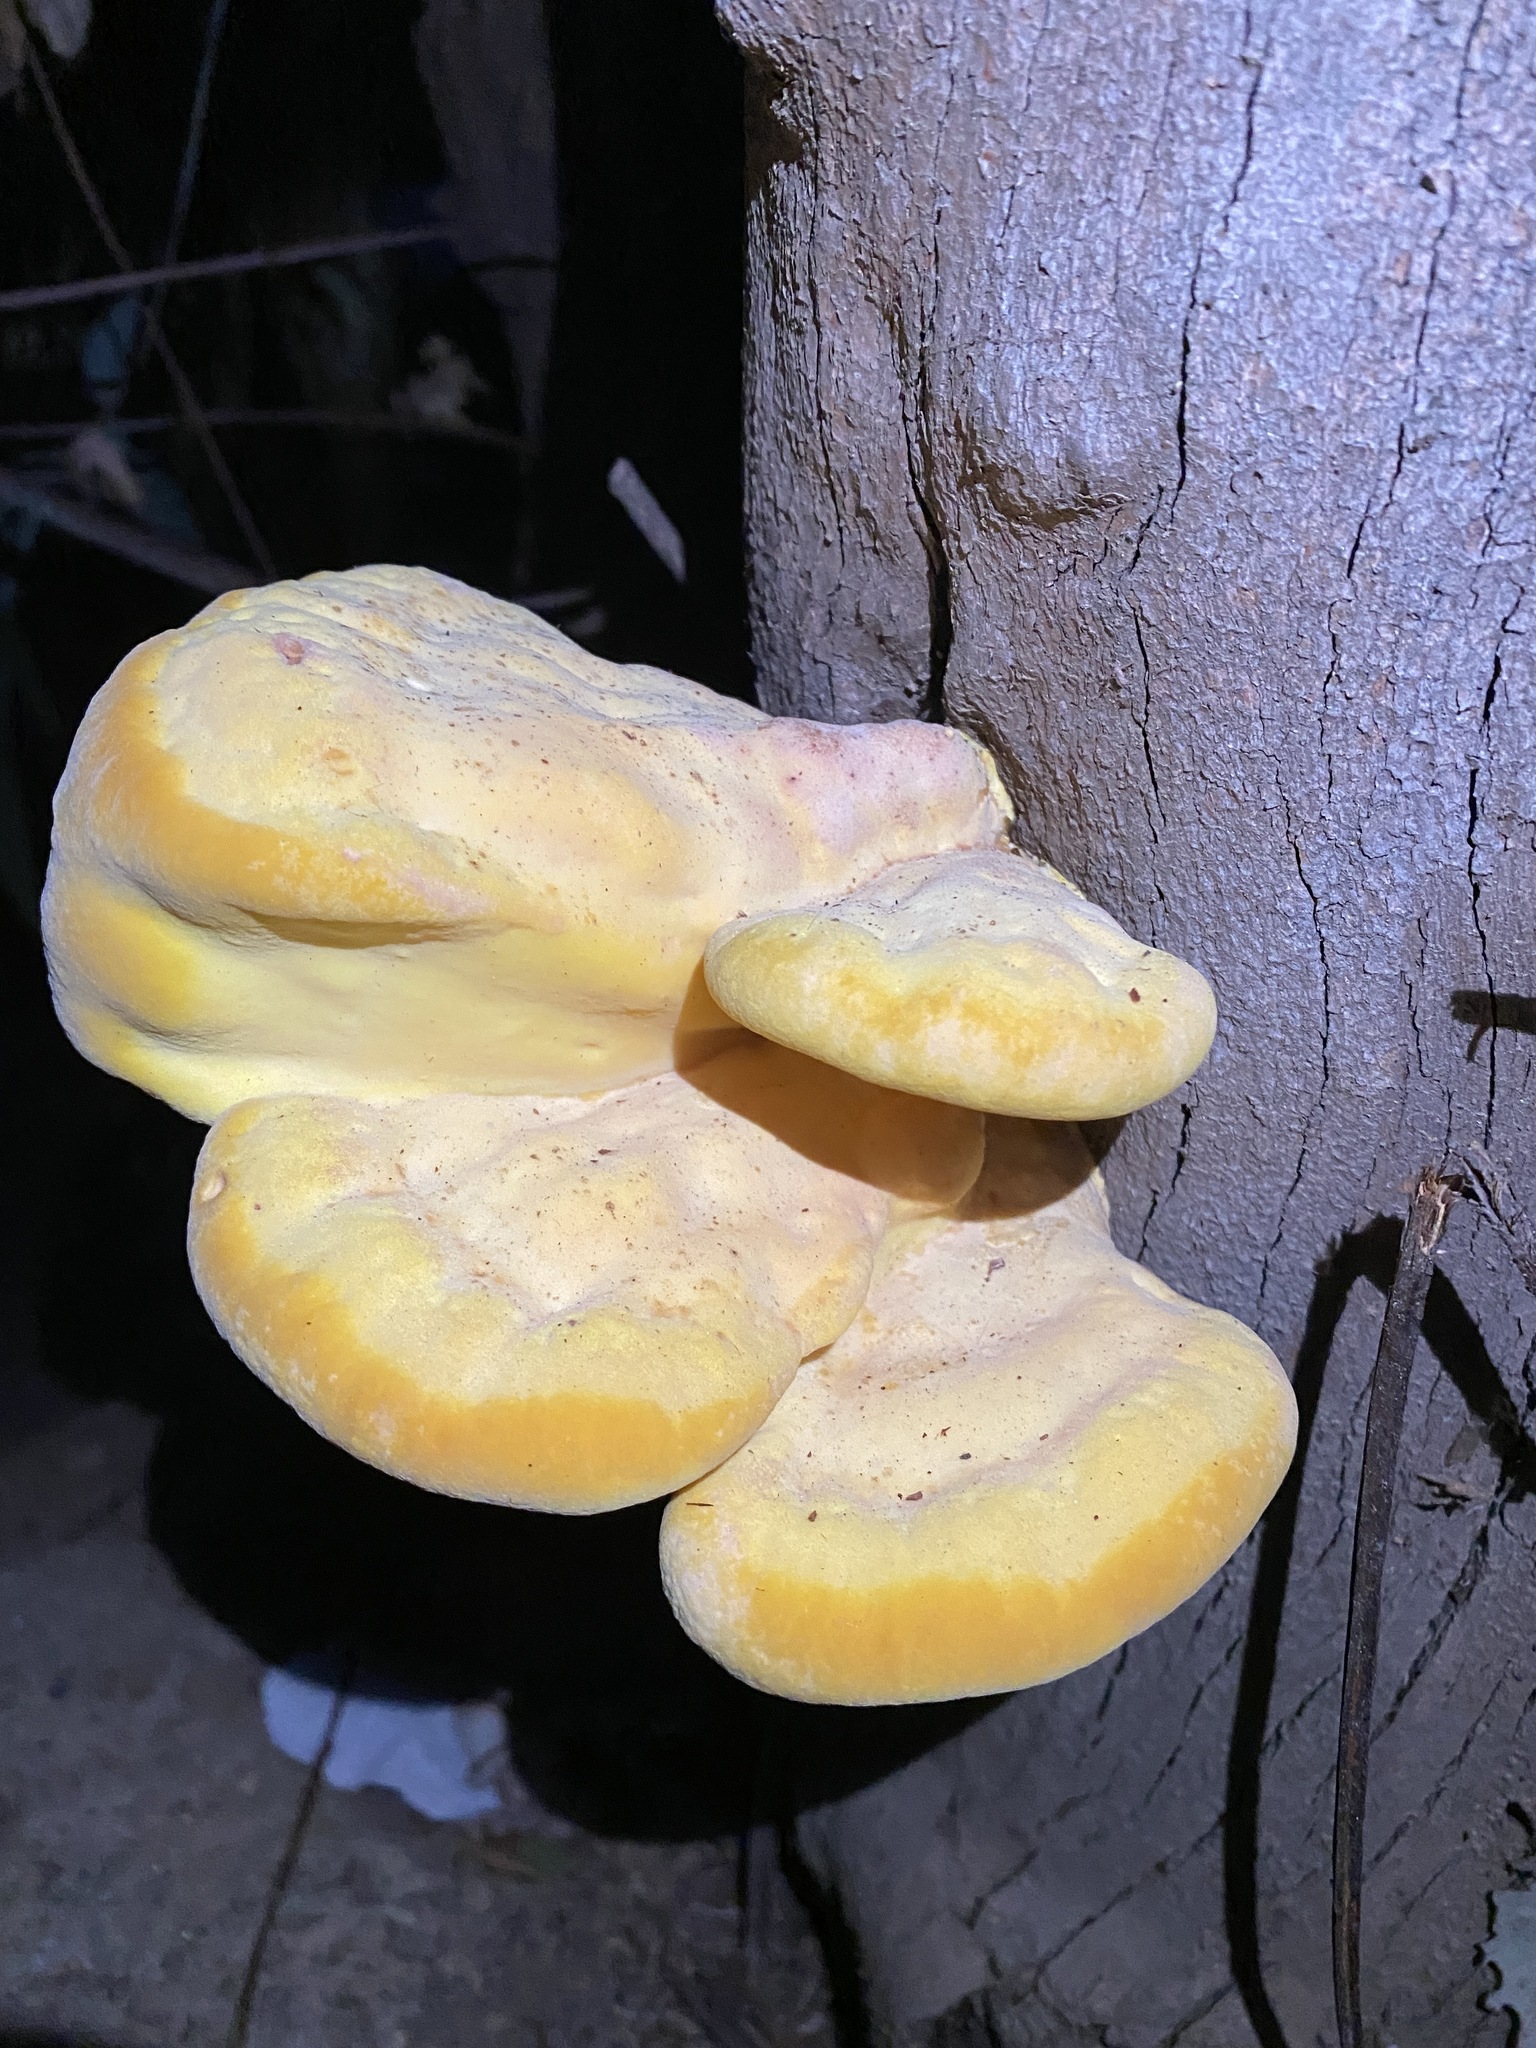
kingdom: Fungi
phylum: Basidiomycota
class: Agaricomycetes
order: Polyporales
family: Laetiporaceae
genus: Laetiporus
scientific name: Laetiporus gilbertsonii
